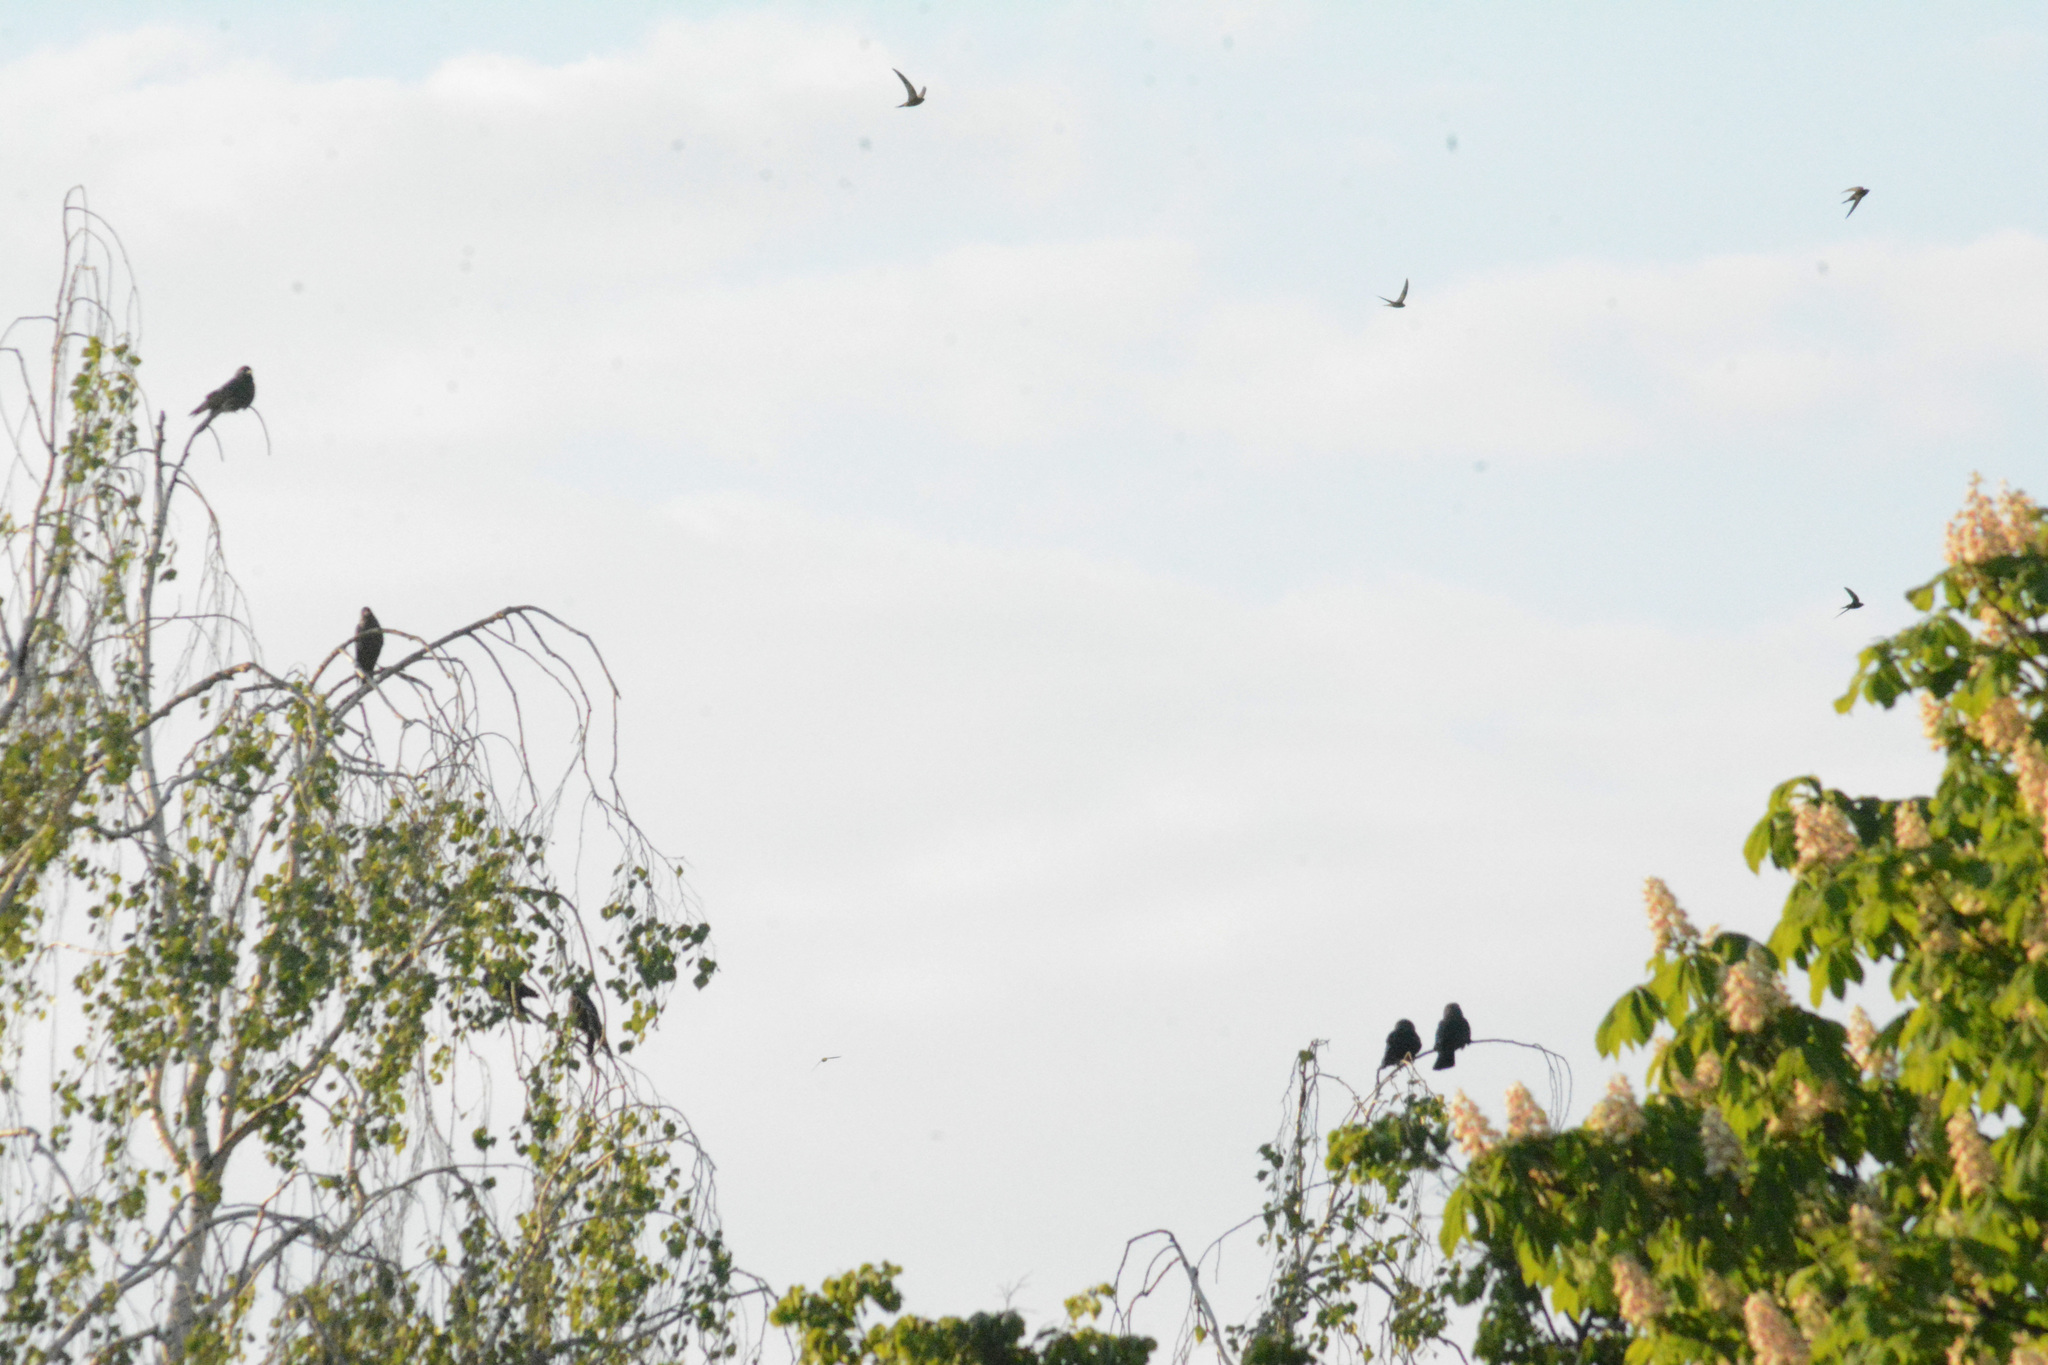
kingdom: Animalia
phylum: Chordata
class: Aves
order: Passeriformes
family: Corvidae
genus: Coloeus
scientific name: Coloeus monedula
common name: Western jackdaw
